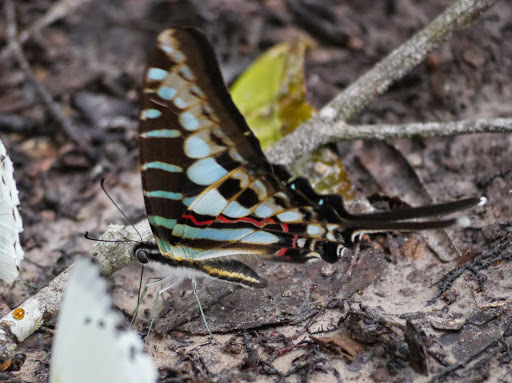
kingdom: Animalia
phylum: Arthropoda
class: Insecta
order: Lepidoptera
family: Papilionidae
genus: Graphium
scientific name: Graphium policenes
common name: Common swordtail
